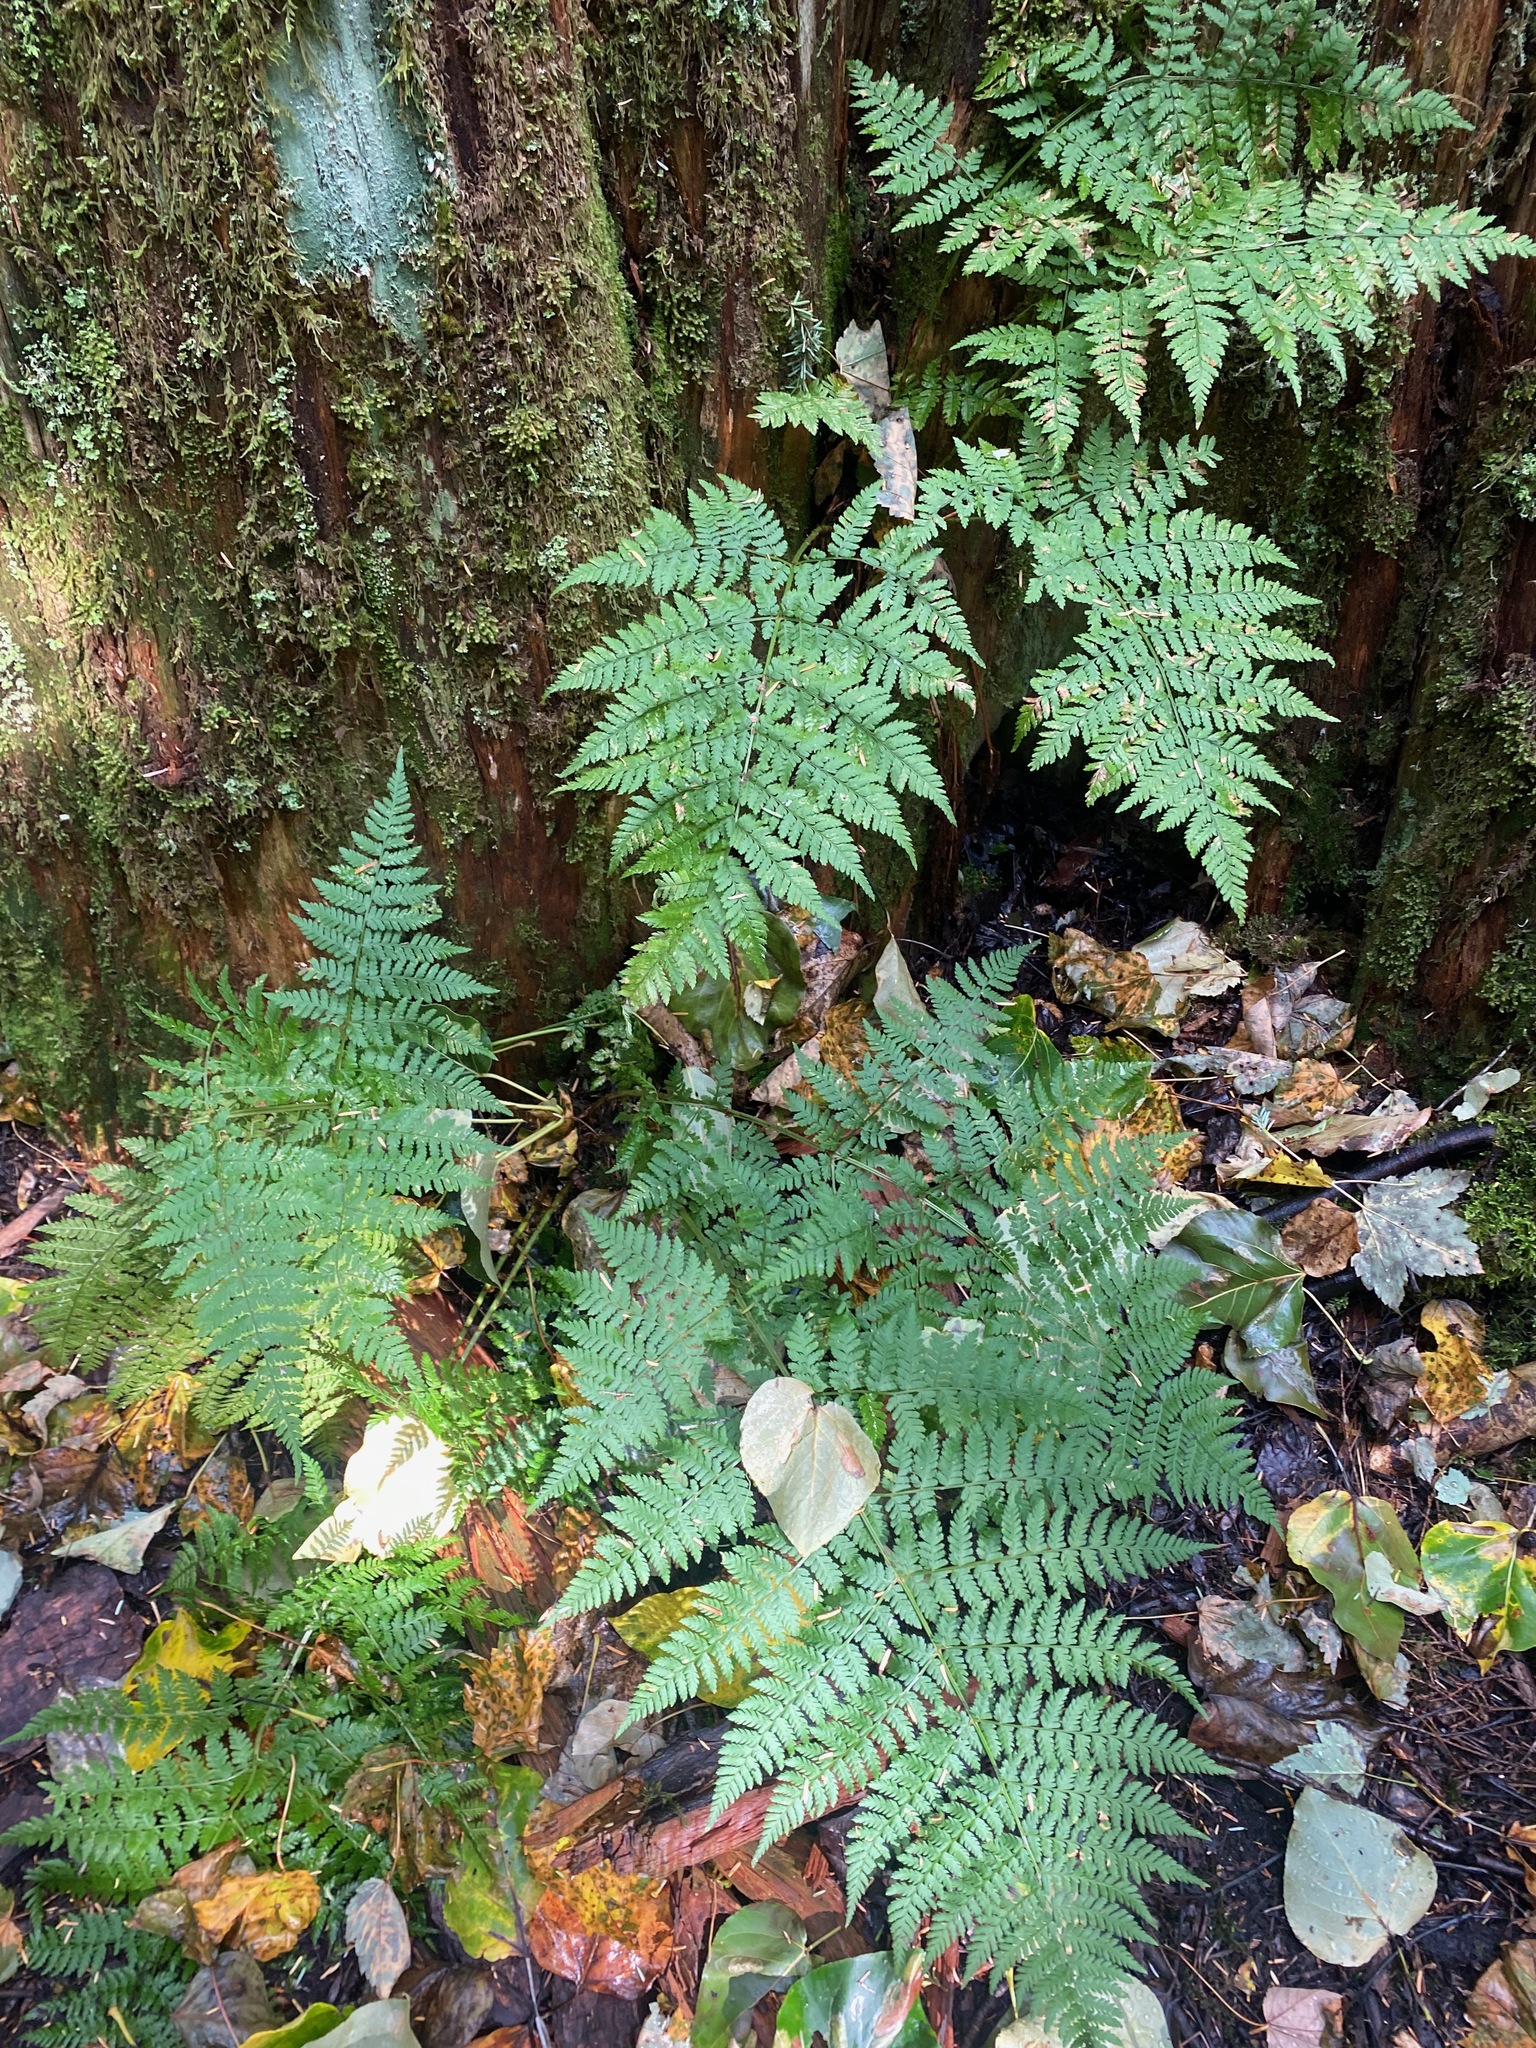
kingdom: Plantae
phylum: Tracheophyta
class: Polypodiopsida
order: Polypodiales
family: Dryopteridaceae
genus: Dryopteris
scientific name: Dryopteris expansa
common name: Northern buckler fern
